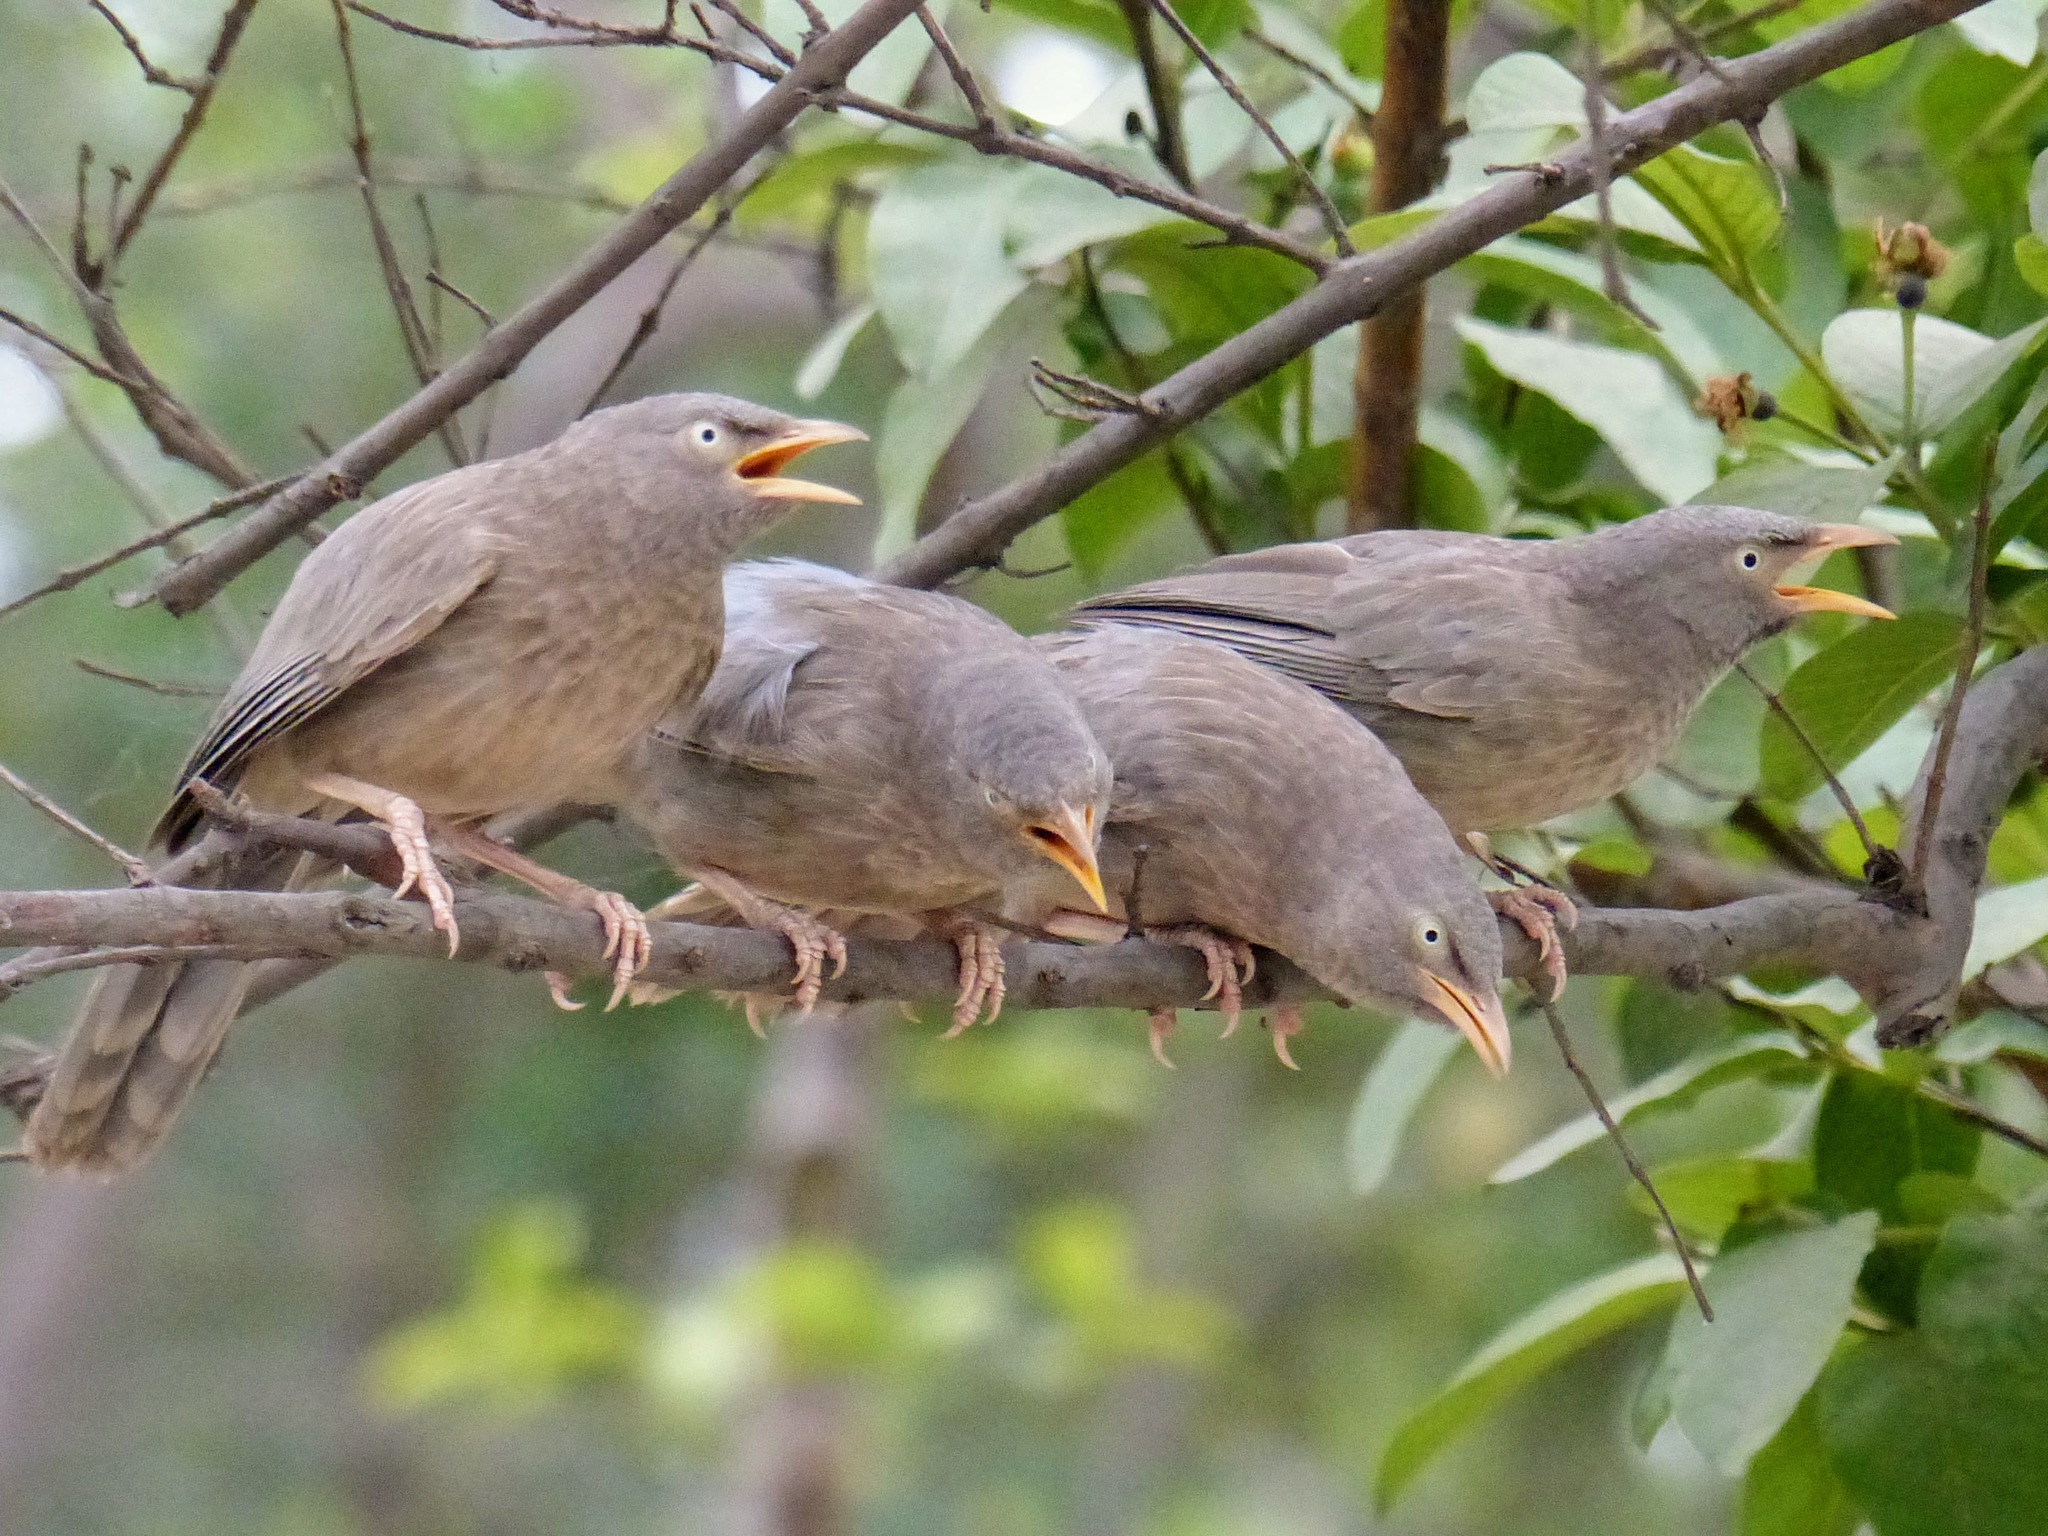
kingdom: Animalia
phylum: Chordata
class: Aves
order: Passeriformes
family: Leiothrichidae
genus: Turdoides
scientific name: Turdoides striata
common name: Jungle babbler
